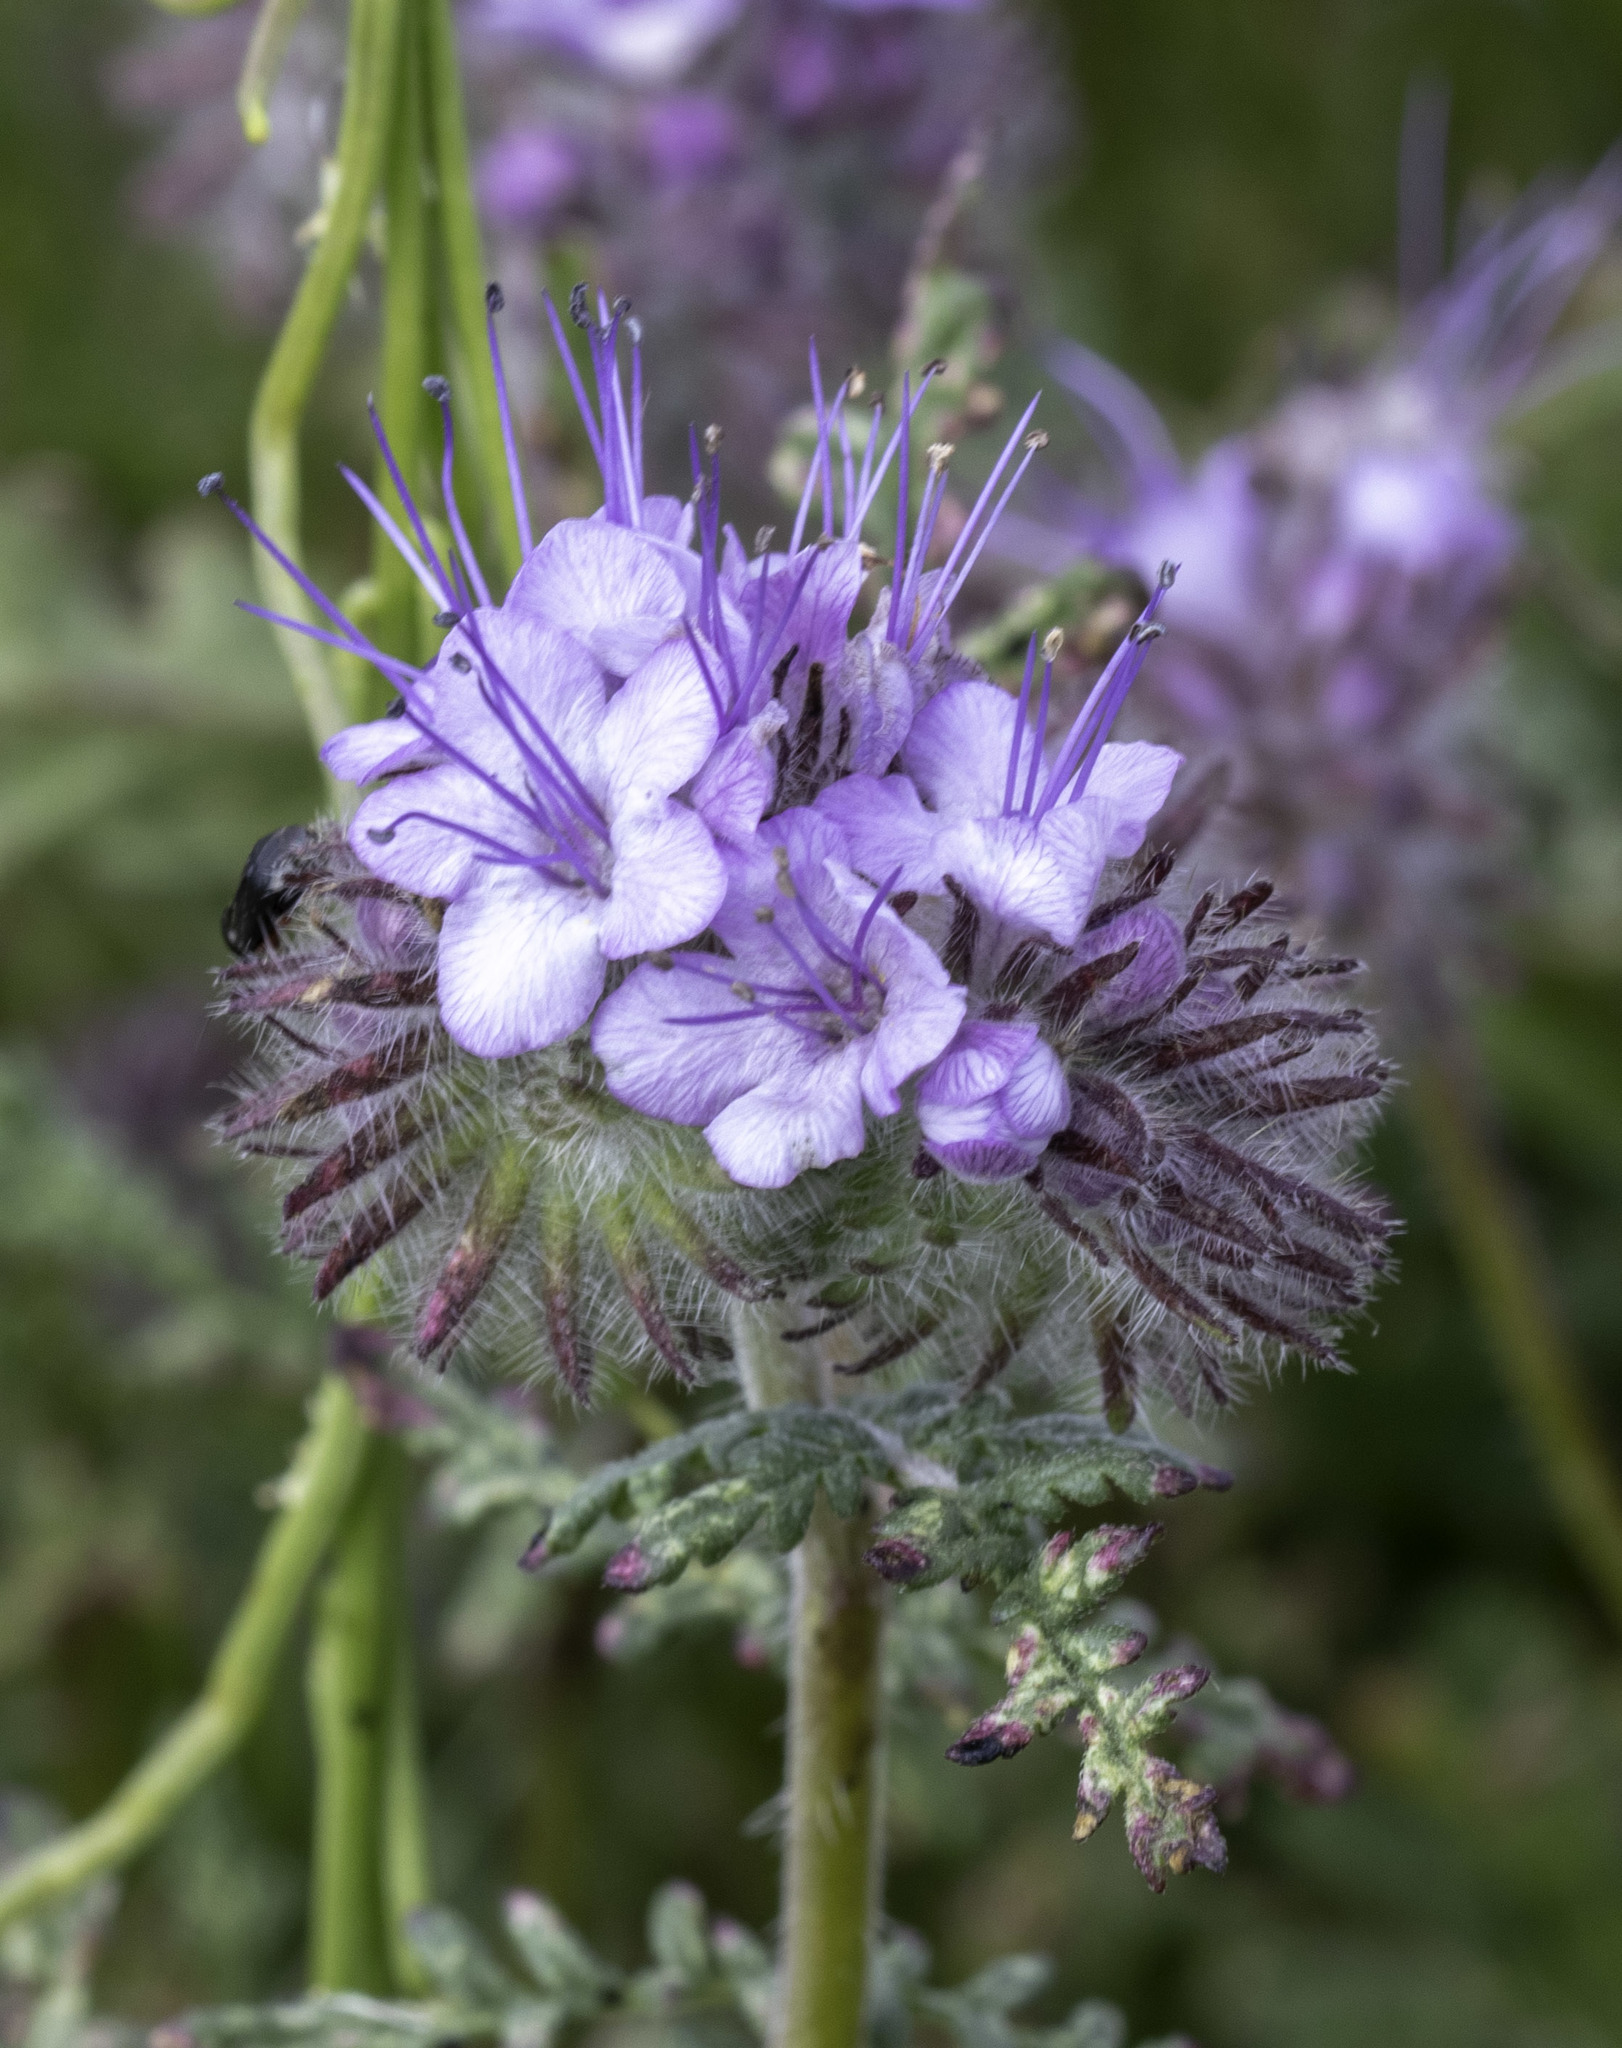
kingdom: Plantae
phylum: Tracheophyta
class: Magnoliopsida
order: Boraginales
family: Hydrophyllaceae
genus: Phacelia
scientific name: Phacelia tanacetifolia
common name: Phacelia
